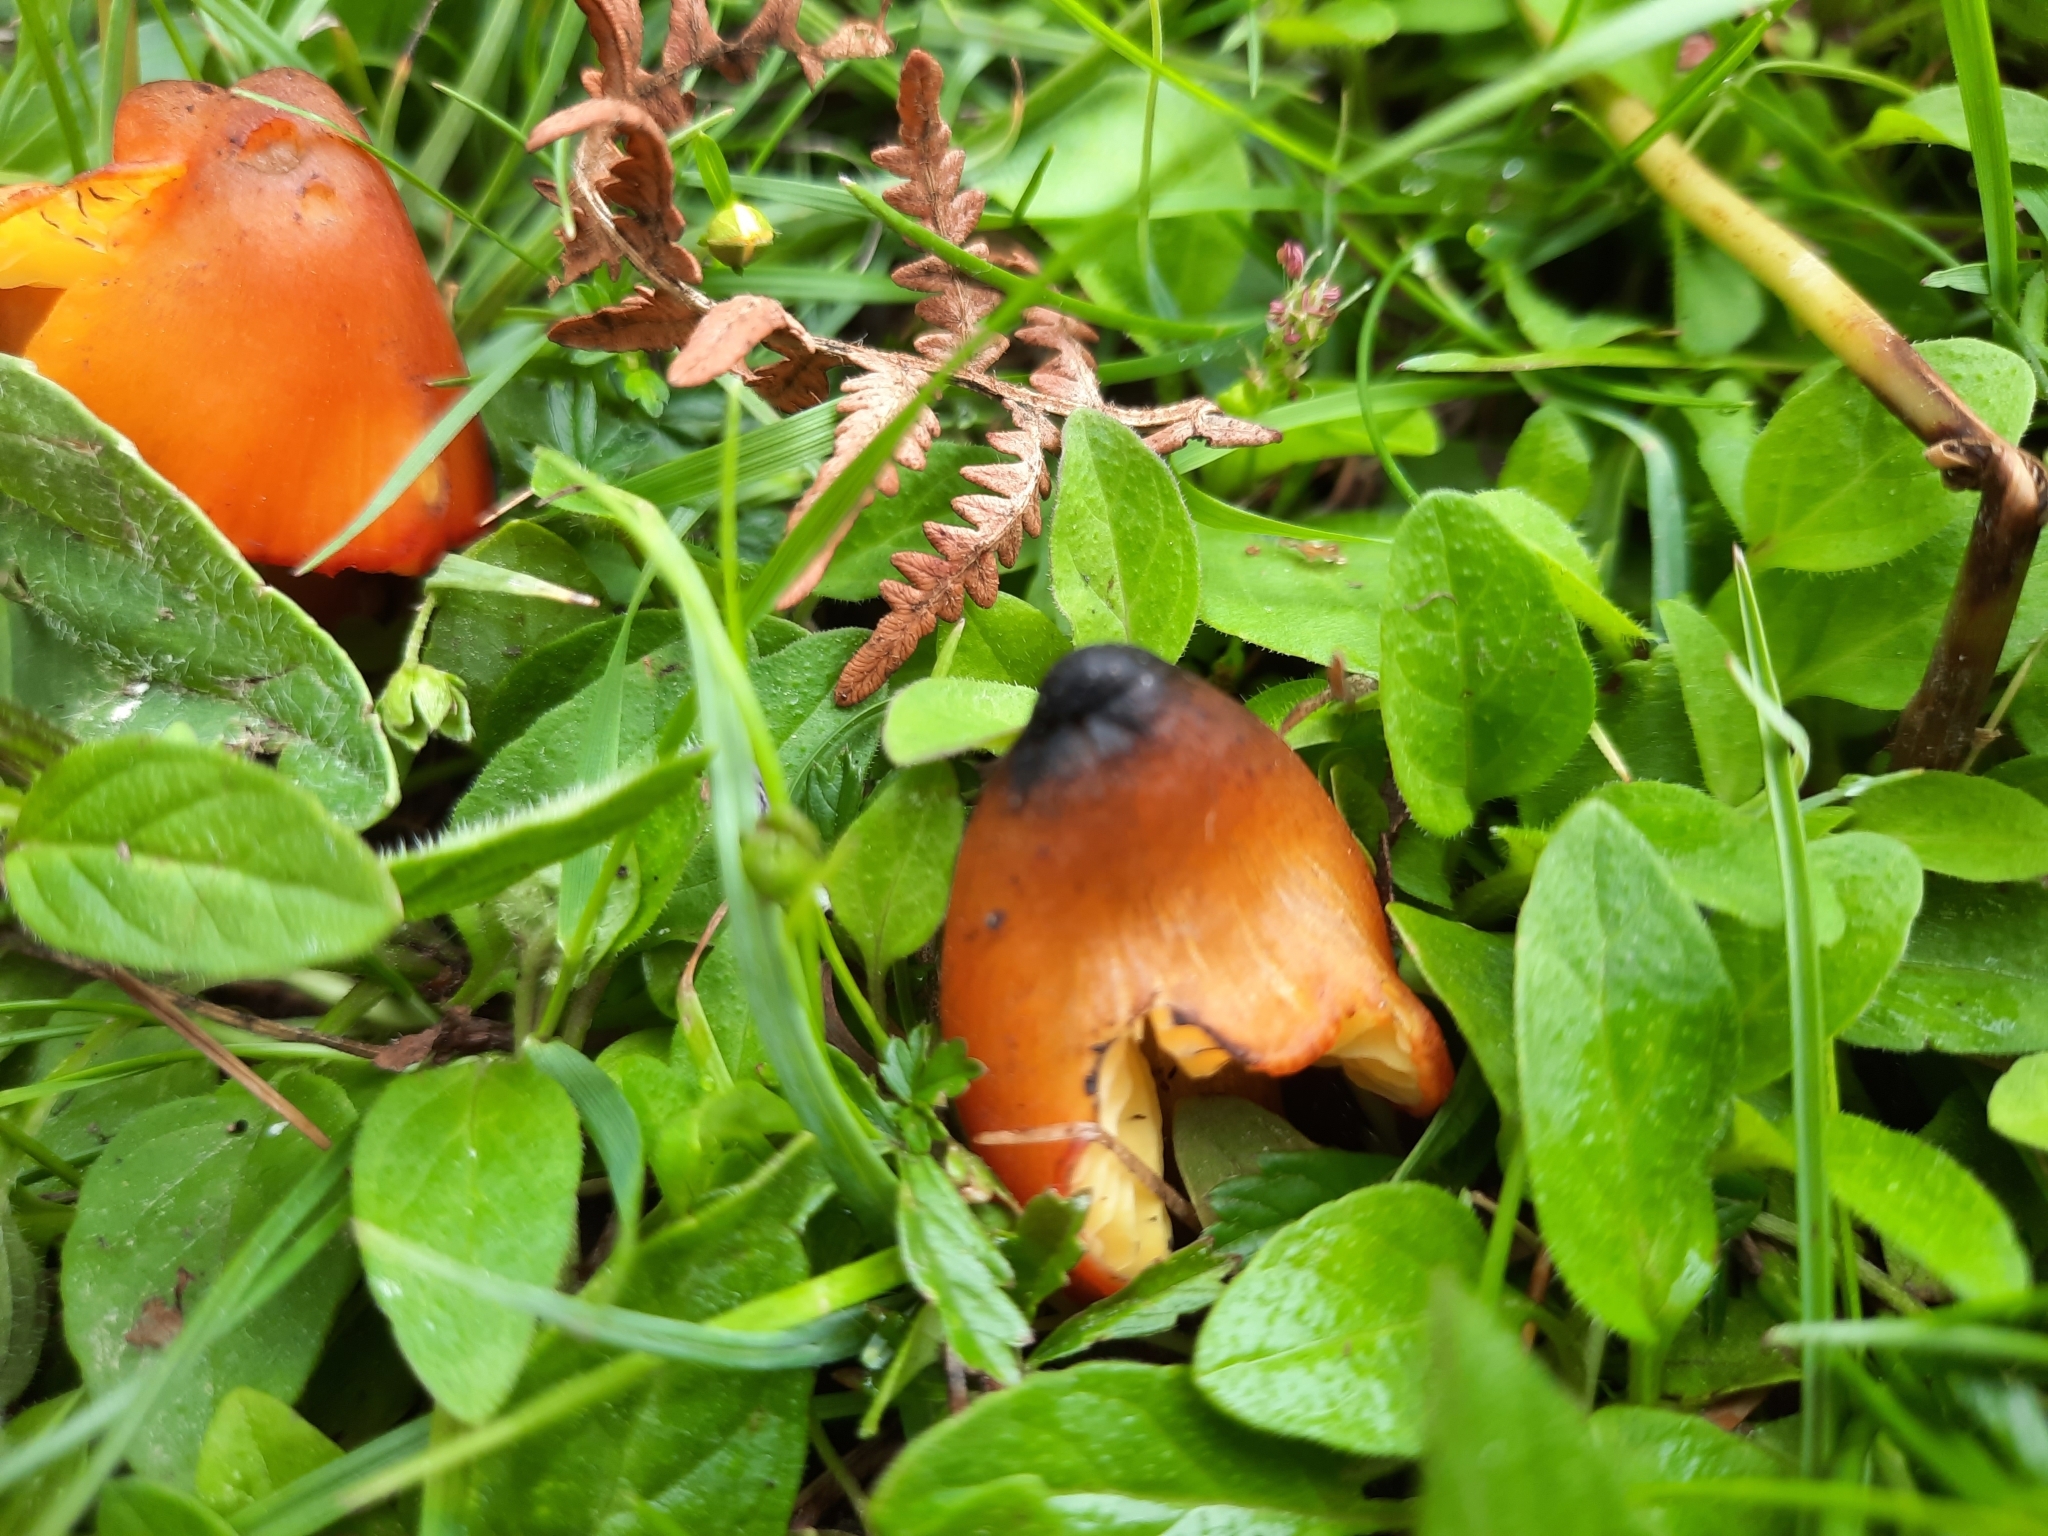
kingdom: Fungi
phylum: Basidiomycota
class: Agaricomycetes
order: Agaricales
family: Hygrophoraceae
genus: Hygrocybe
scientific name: Hygrocybe conica
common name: Blackening wax-cap
